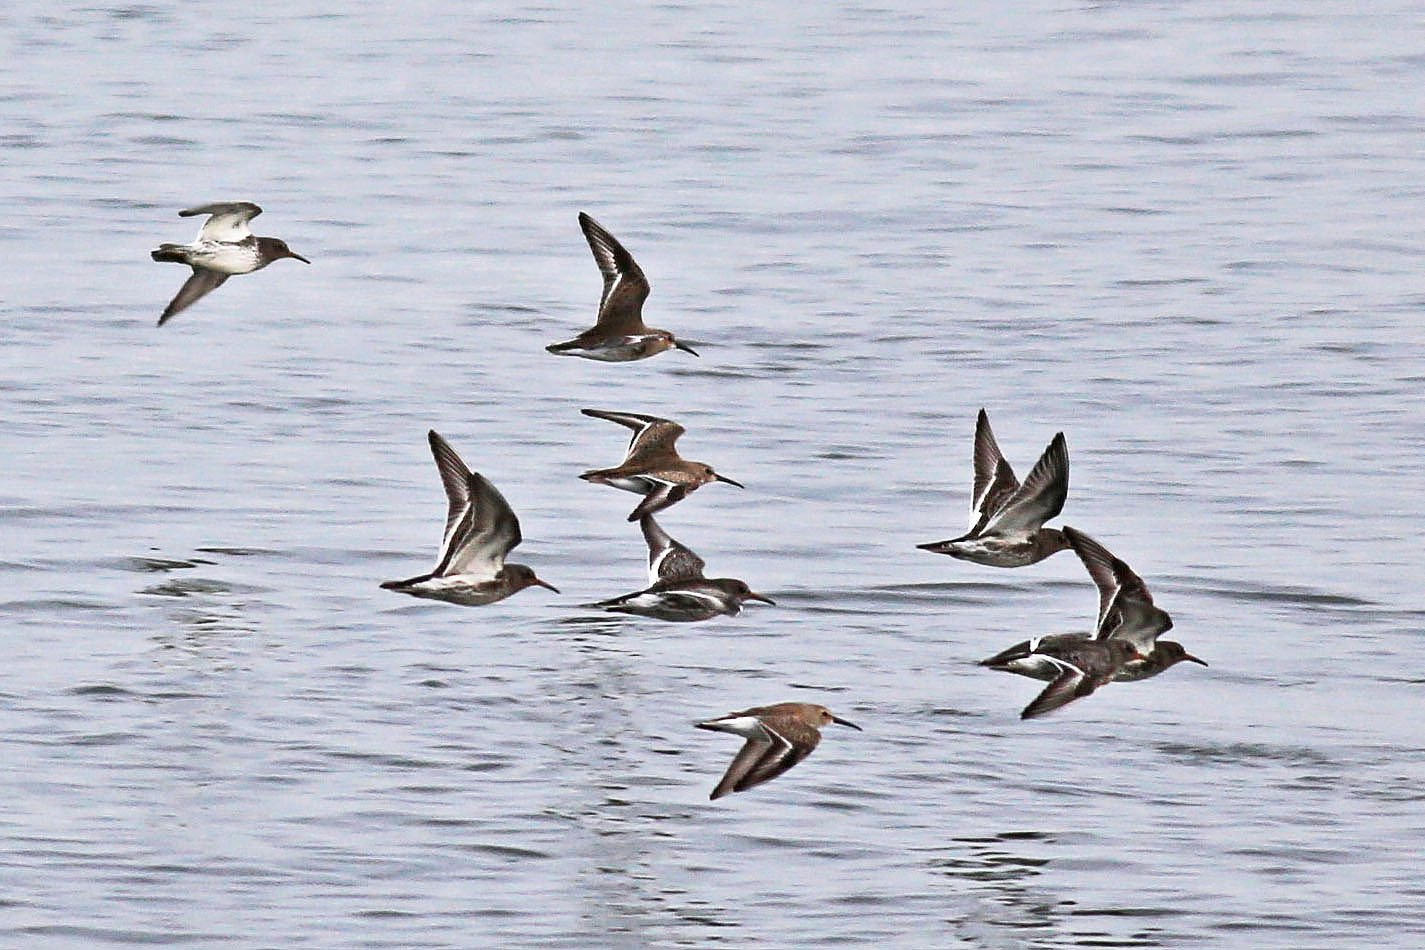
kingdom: Animalia
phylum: Chordata
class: Aves
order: Charadriiformes
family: Scolopacidae
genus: Calidris
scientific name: Calidris alpina
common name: Dunlin
